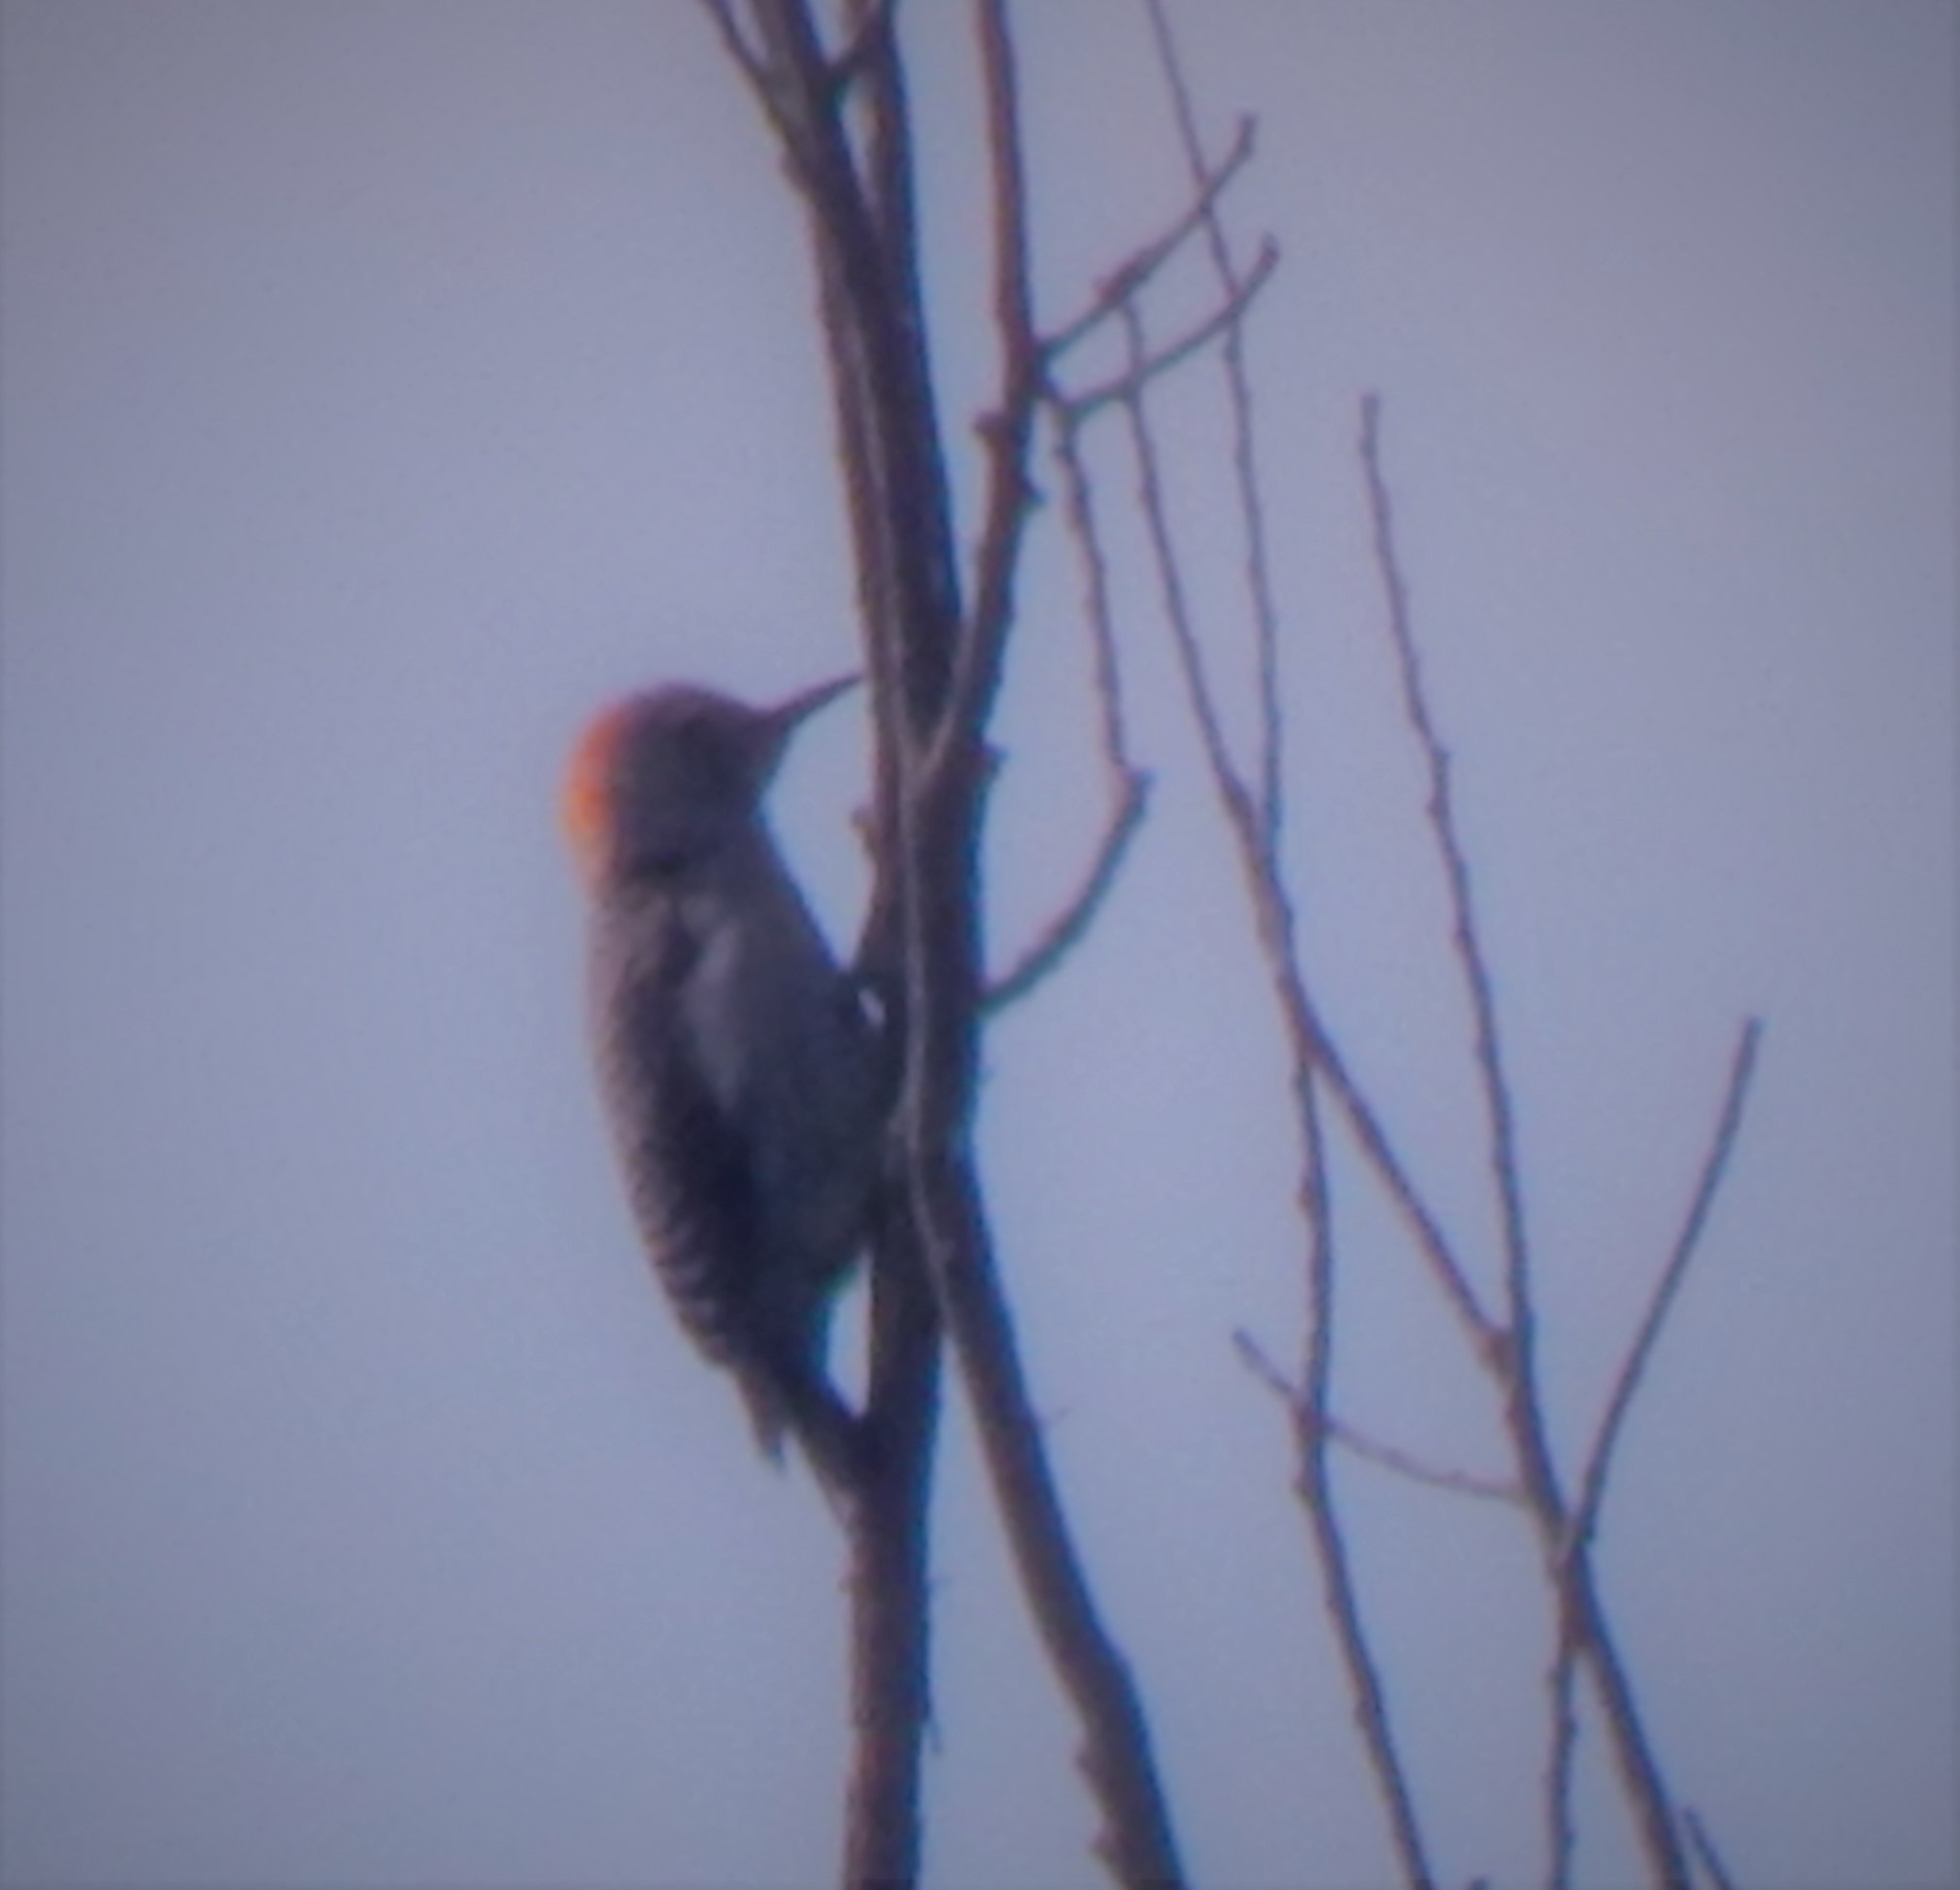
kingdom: Animalia
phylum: Chordata
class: Aves
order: Piciformes
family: Picidae
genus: Melanerpes
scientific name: Melanerpes carolinus
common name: Red-bellied woodpecker
